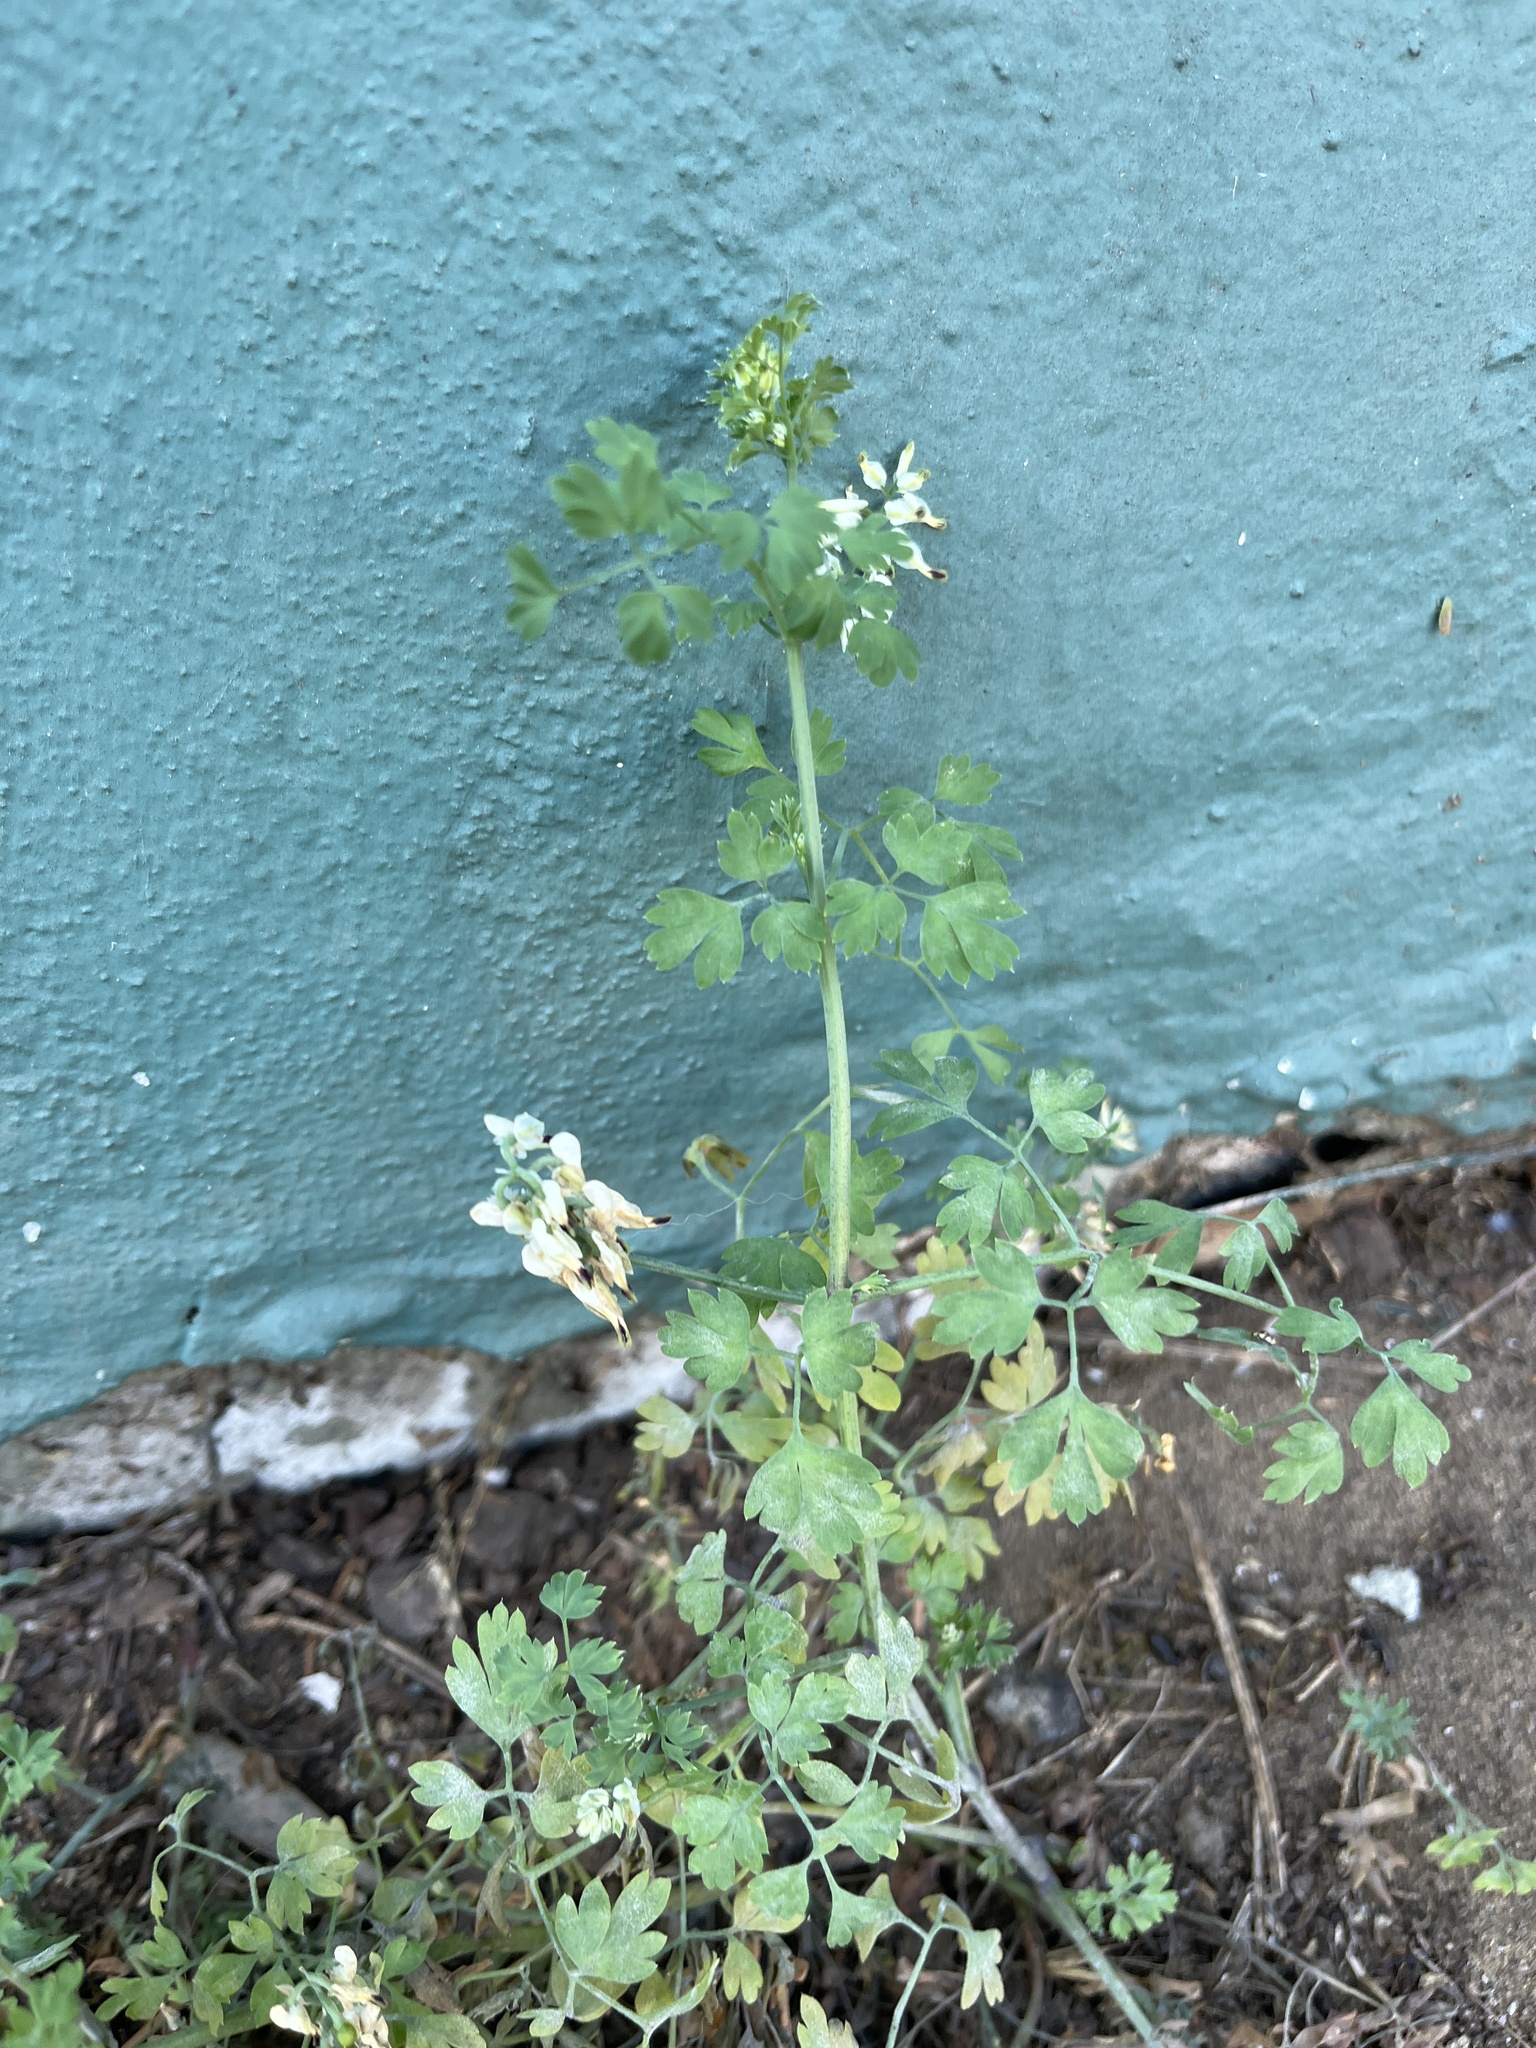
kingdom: Plantae
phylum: Tracheophyta
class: Magnoliopsida
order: Ranunculales
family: Papaveraceae
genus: Fumaria
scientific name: Fumaria capreolata
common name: White ramping-fumitory
